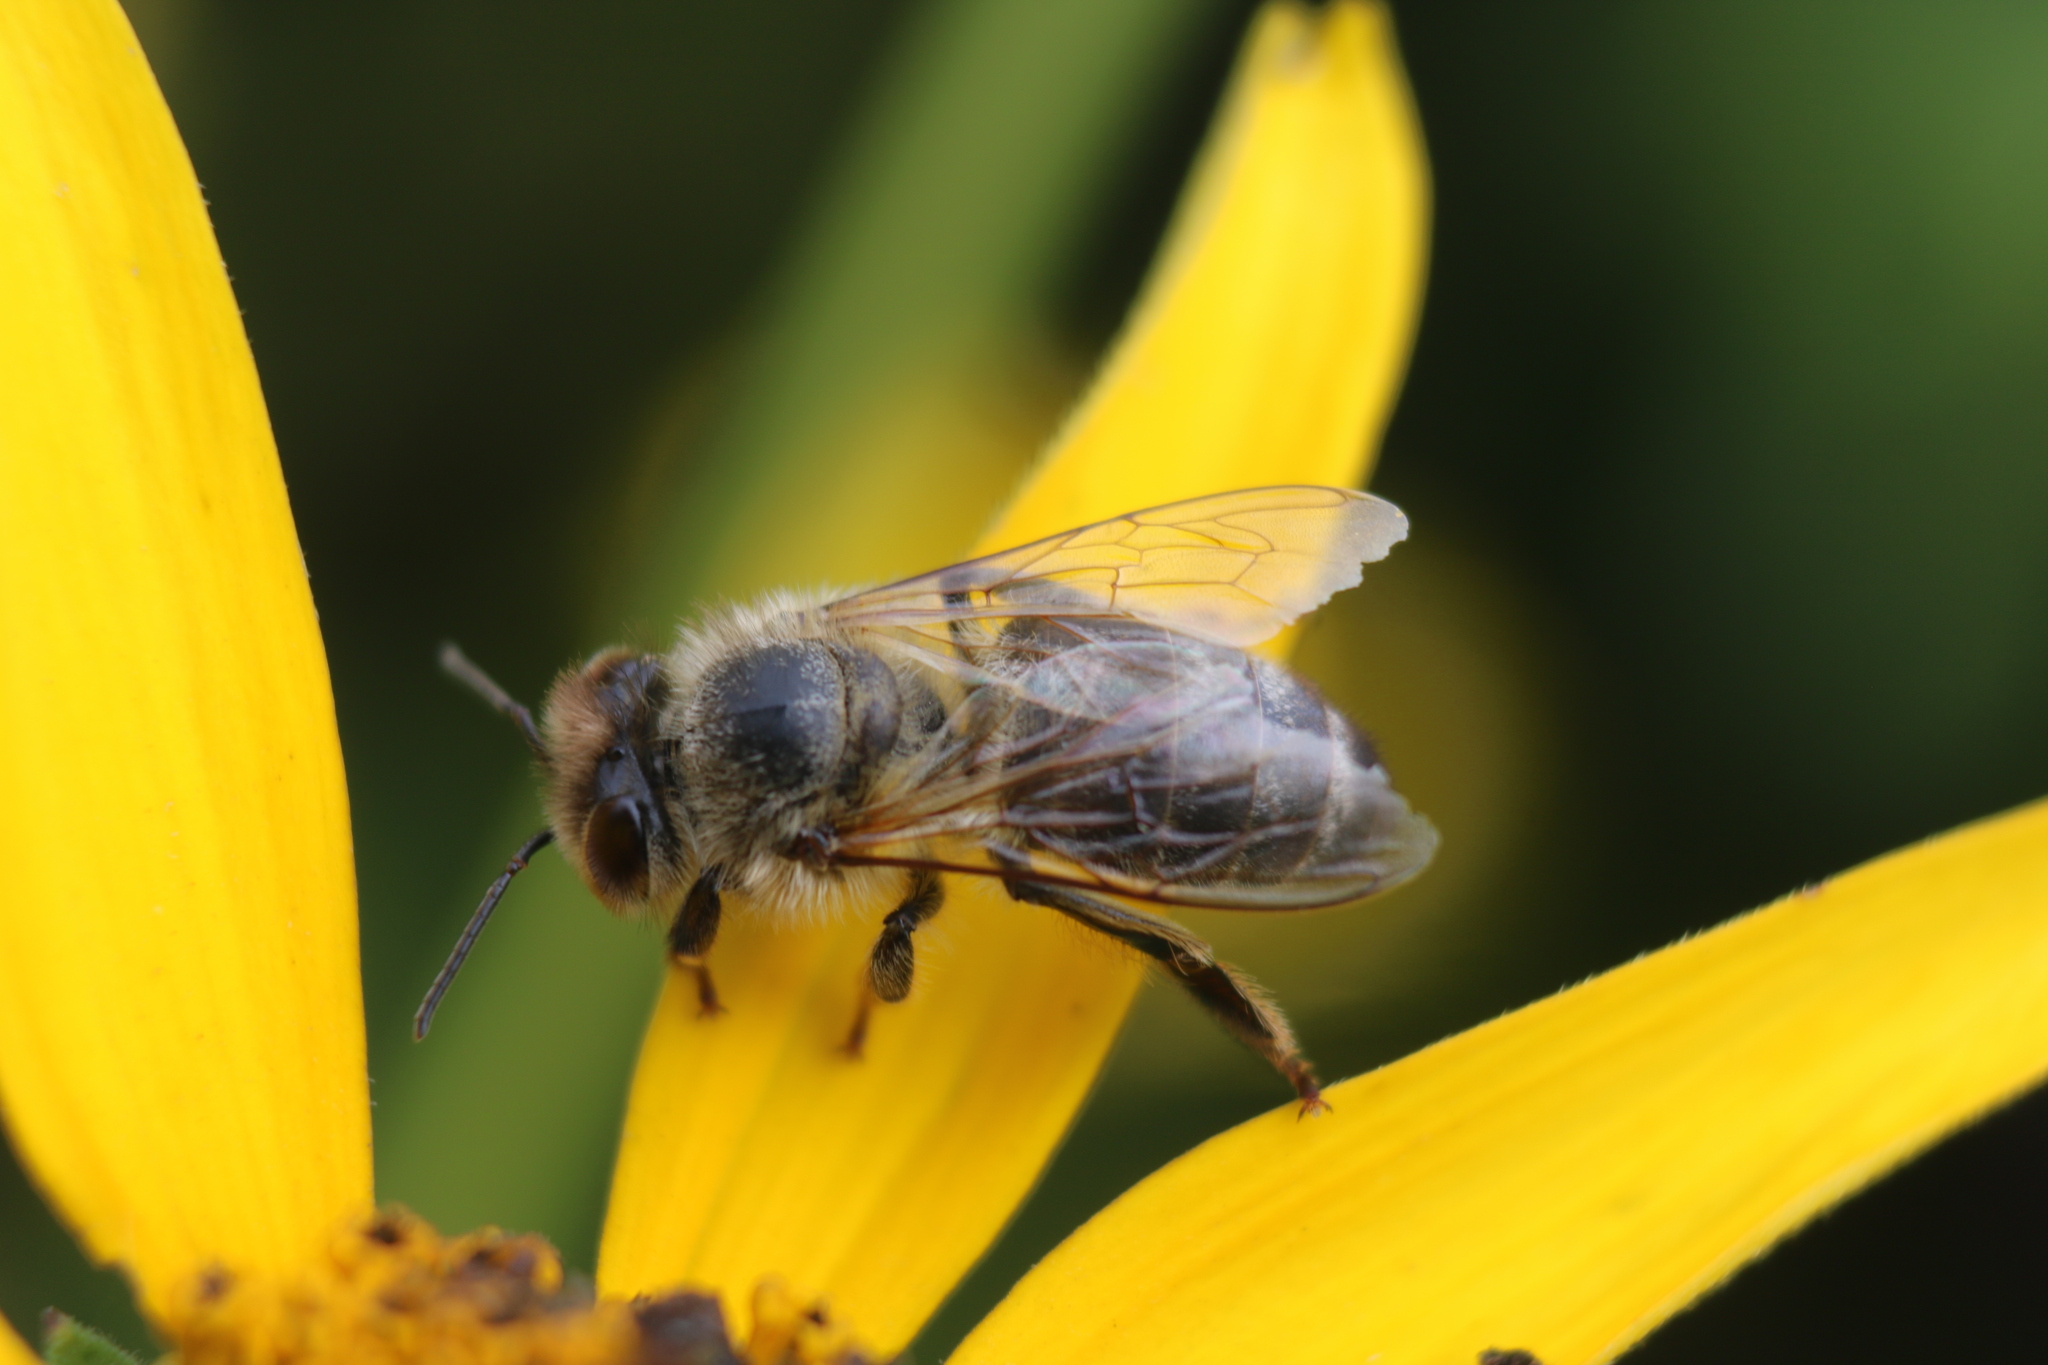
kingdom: Animalia
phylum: Arthropoda
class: Insecta
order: Hymenoptera
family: Apidae
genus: Apis
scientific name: Apis mellifera
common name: Honey bee
